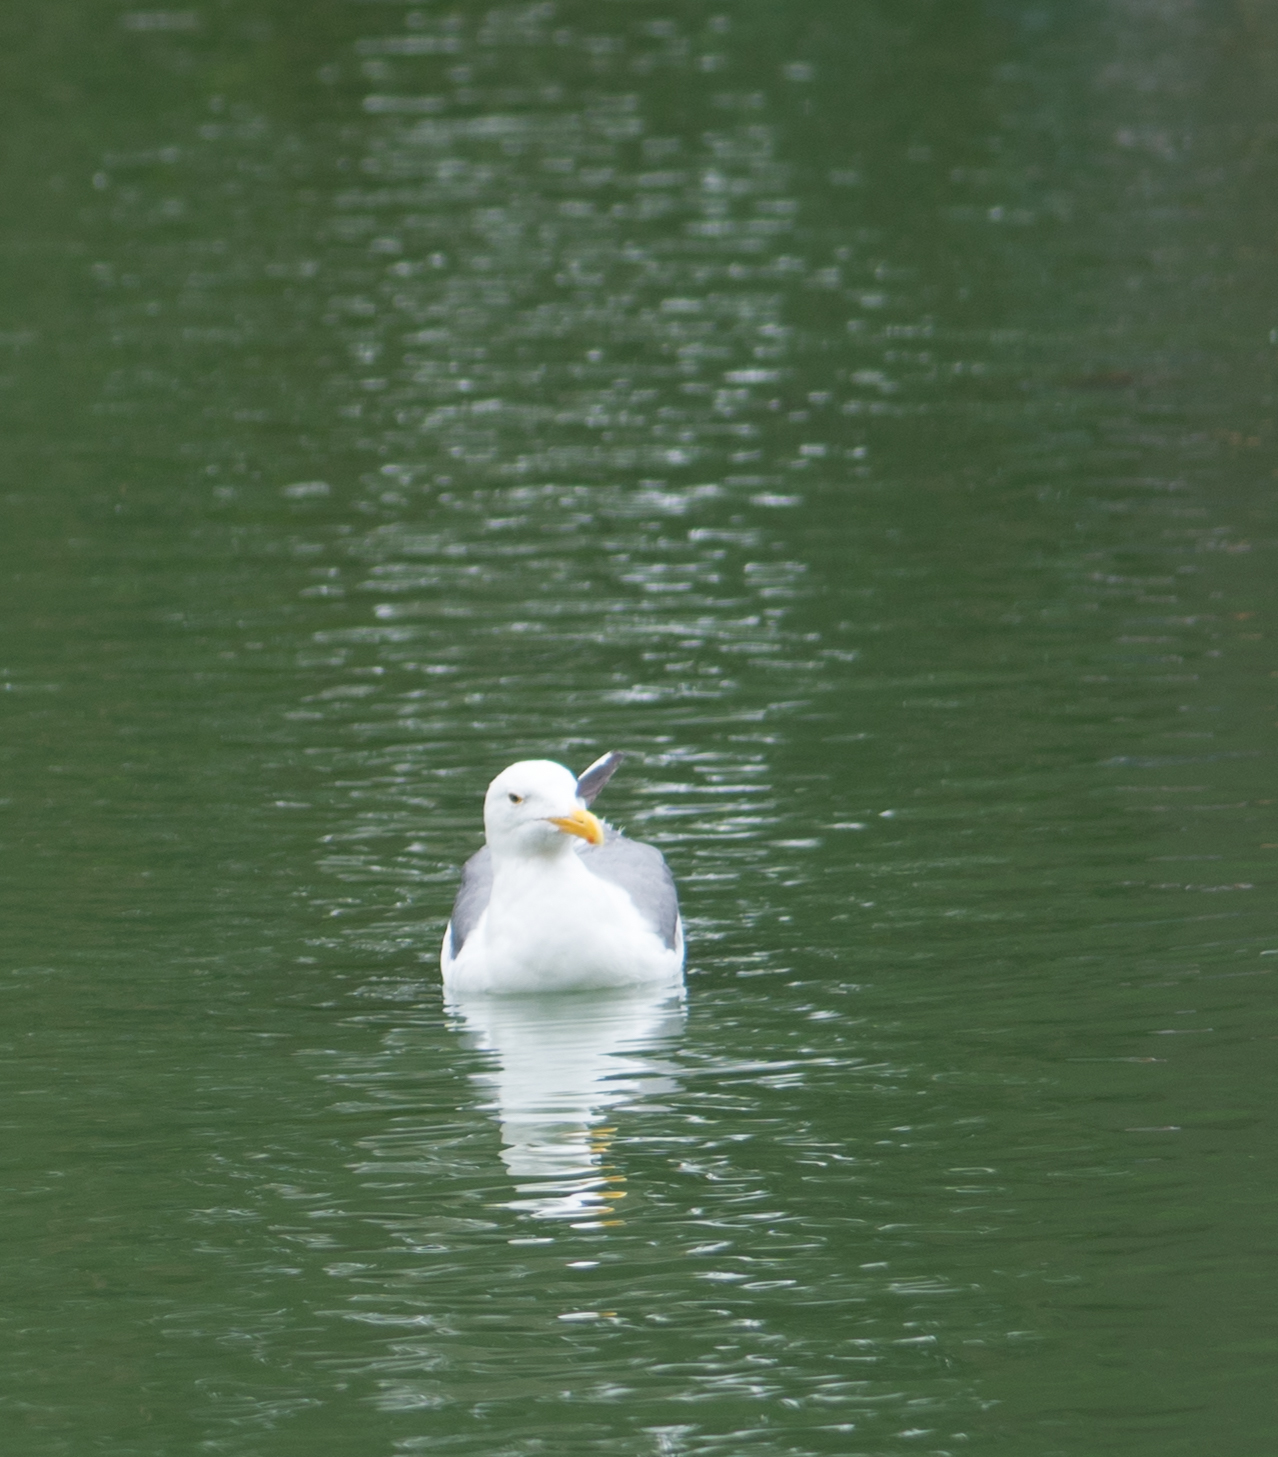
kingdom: Animalia
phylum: Chordata
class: Aves
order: Charadriiformes
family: Laridae
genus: Larus
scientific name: Larus occidentalis
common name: Western gull
